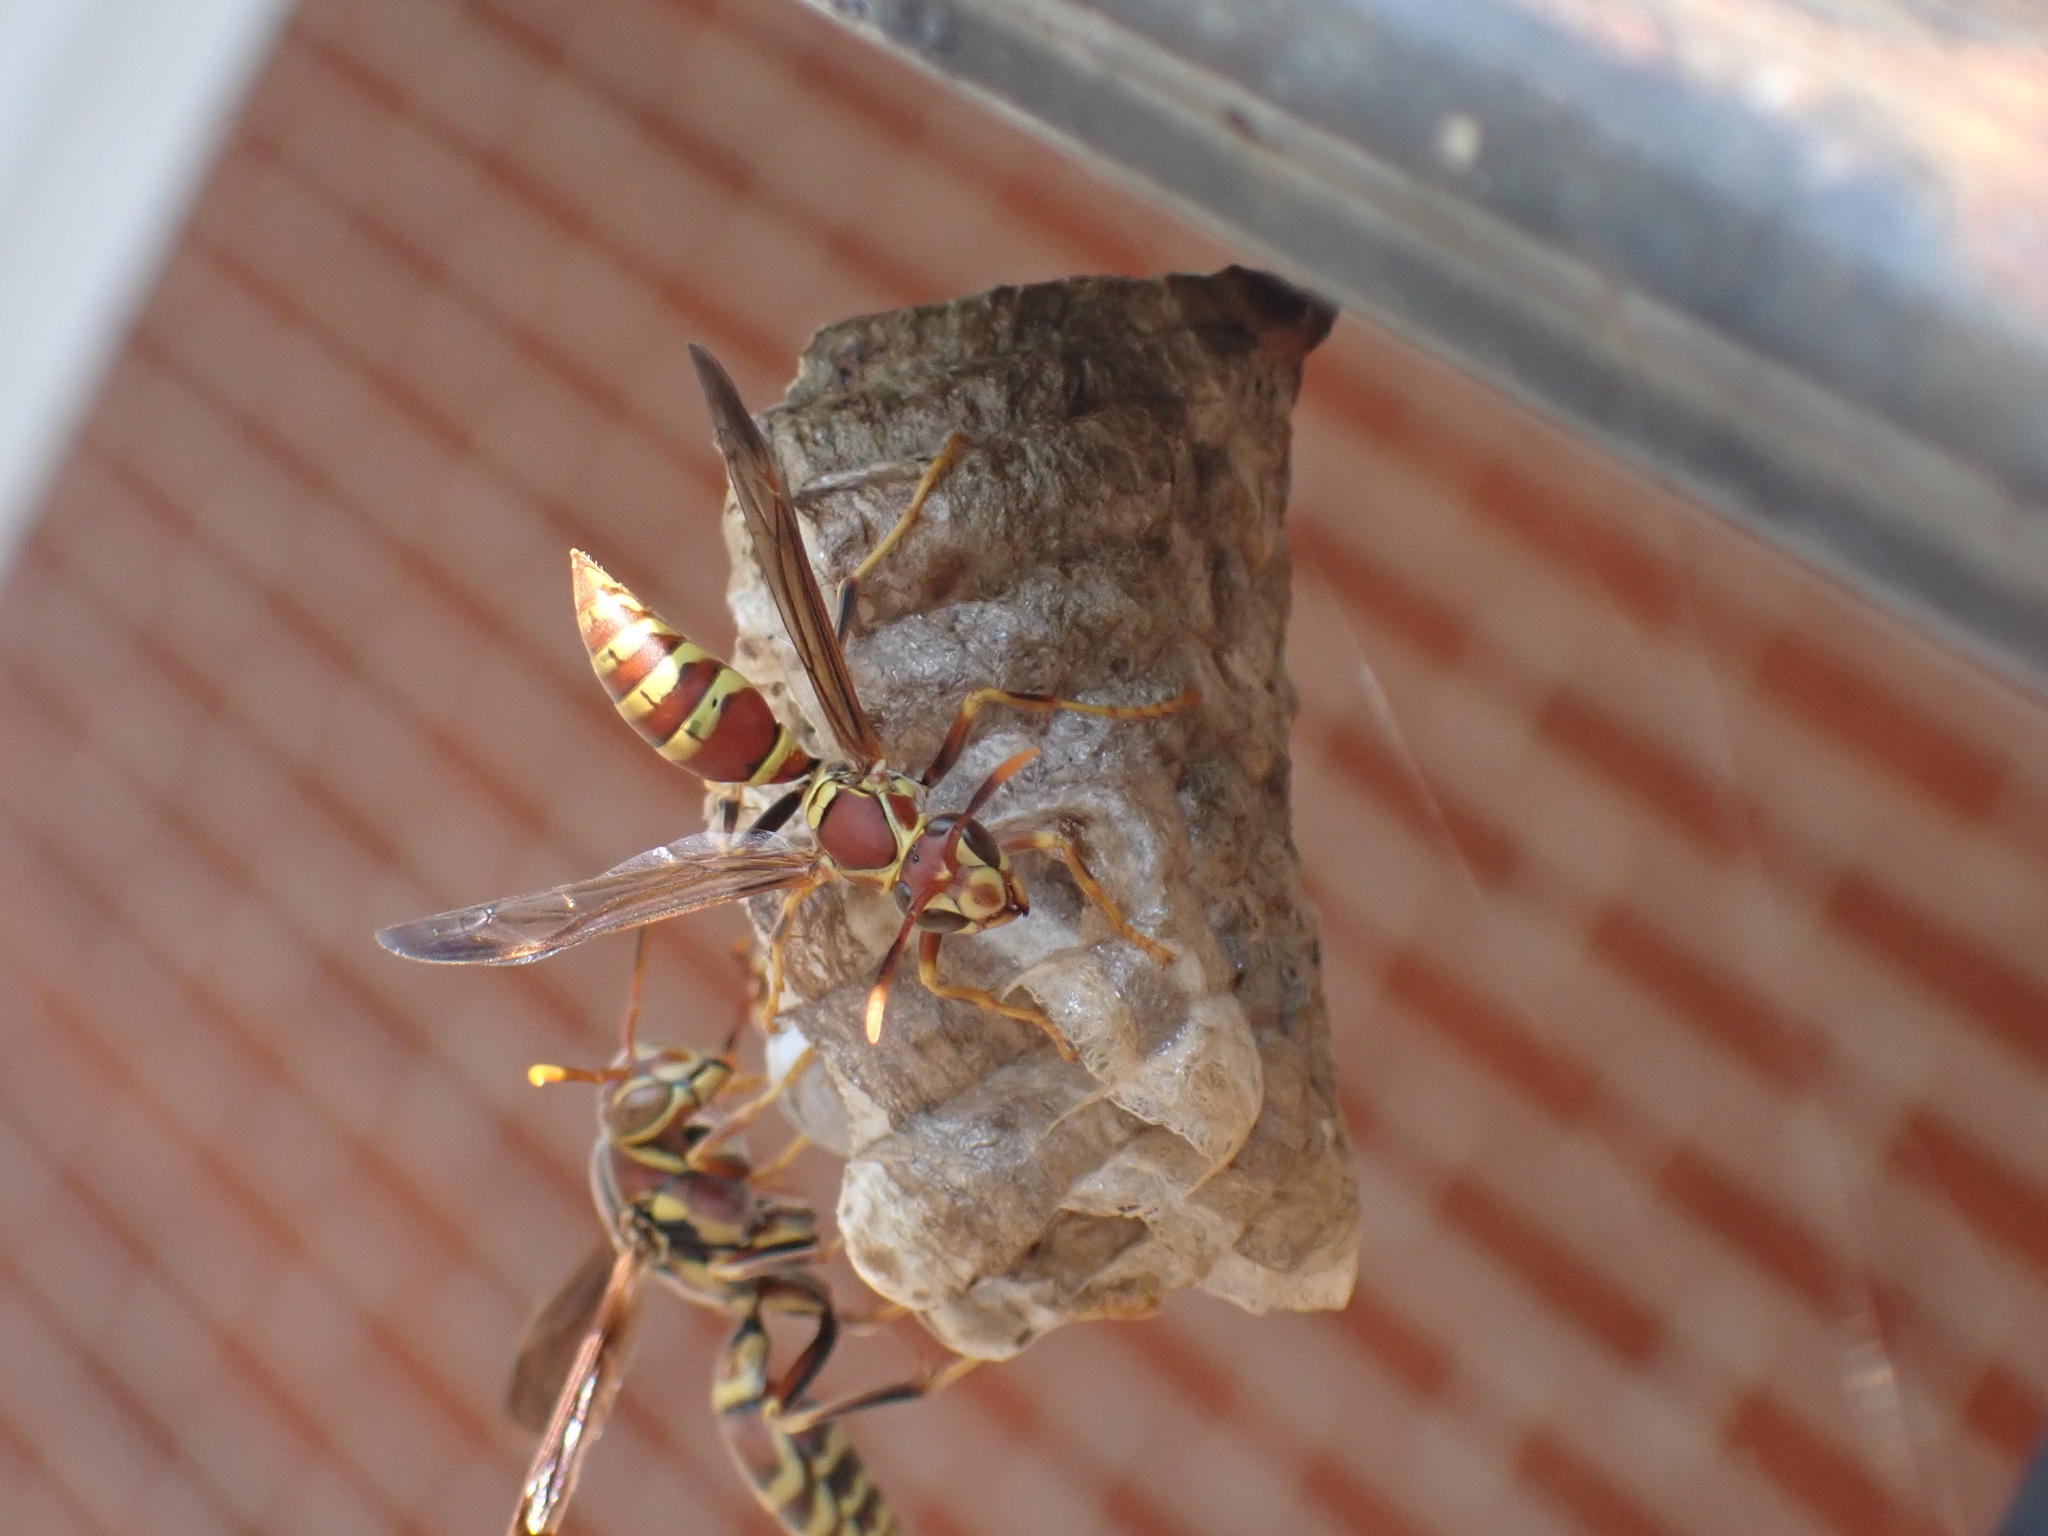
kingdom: Animalia
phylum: Arthropoda
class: Insecta
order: Hymenoptera
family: Eumenidae
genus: Polistes
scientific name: Polistes exclamans
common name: Paper wasp
